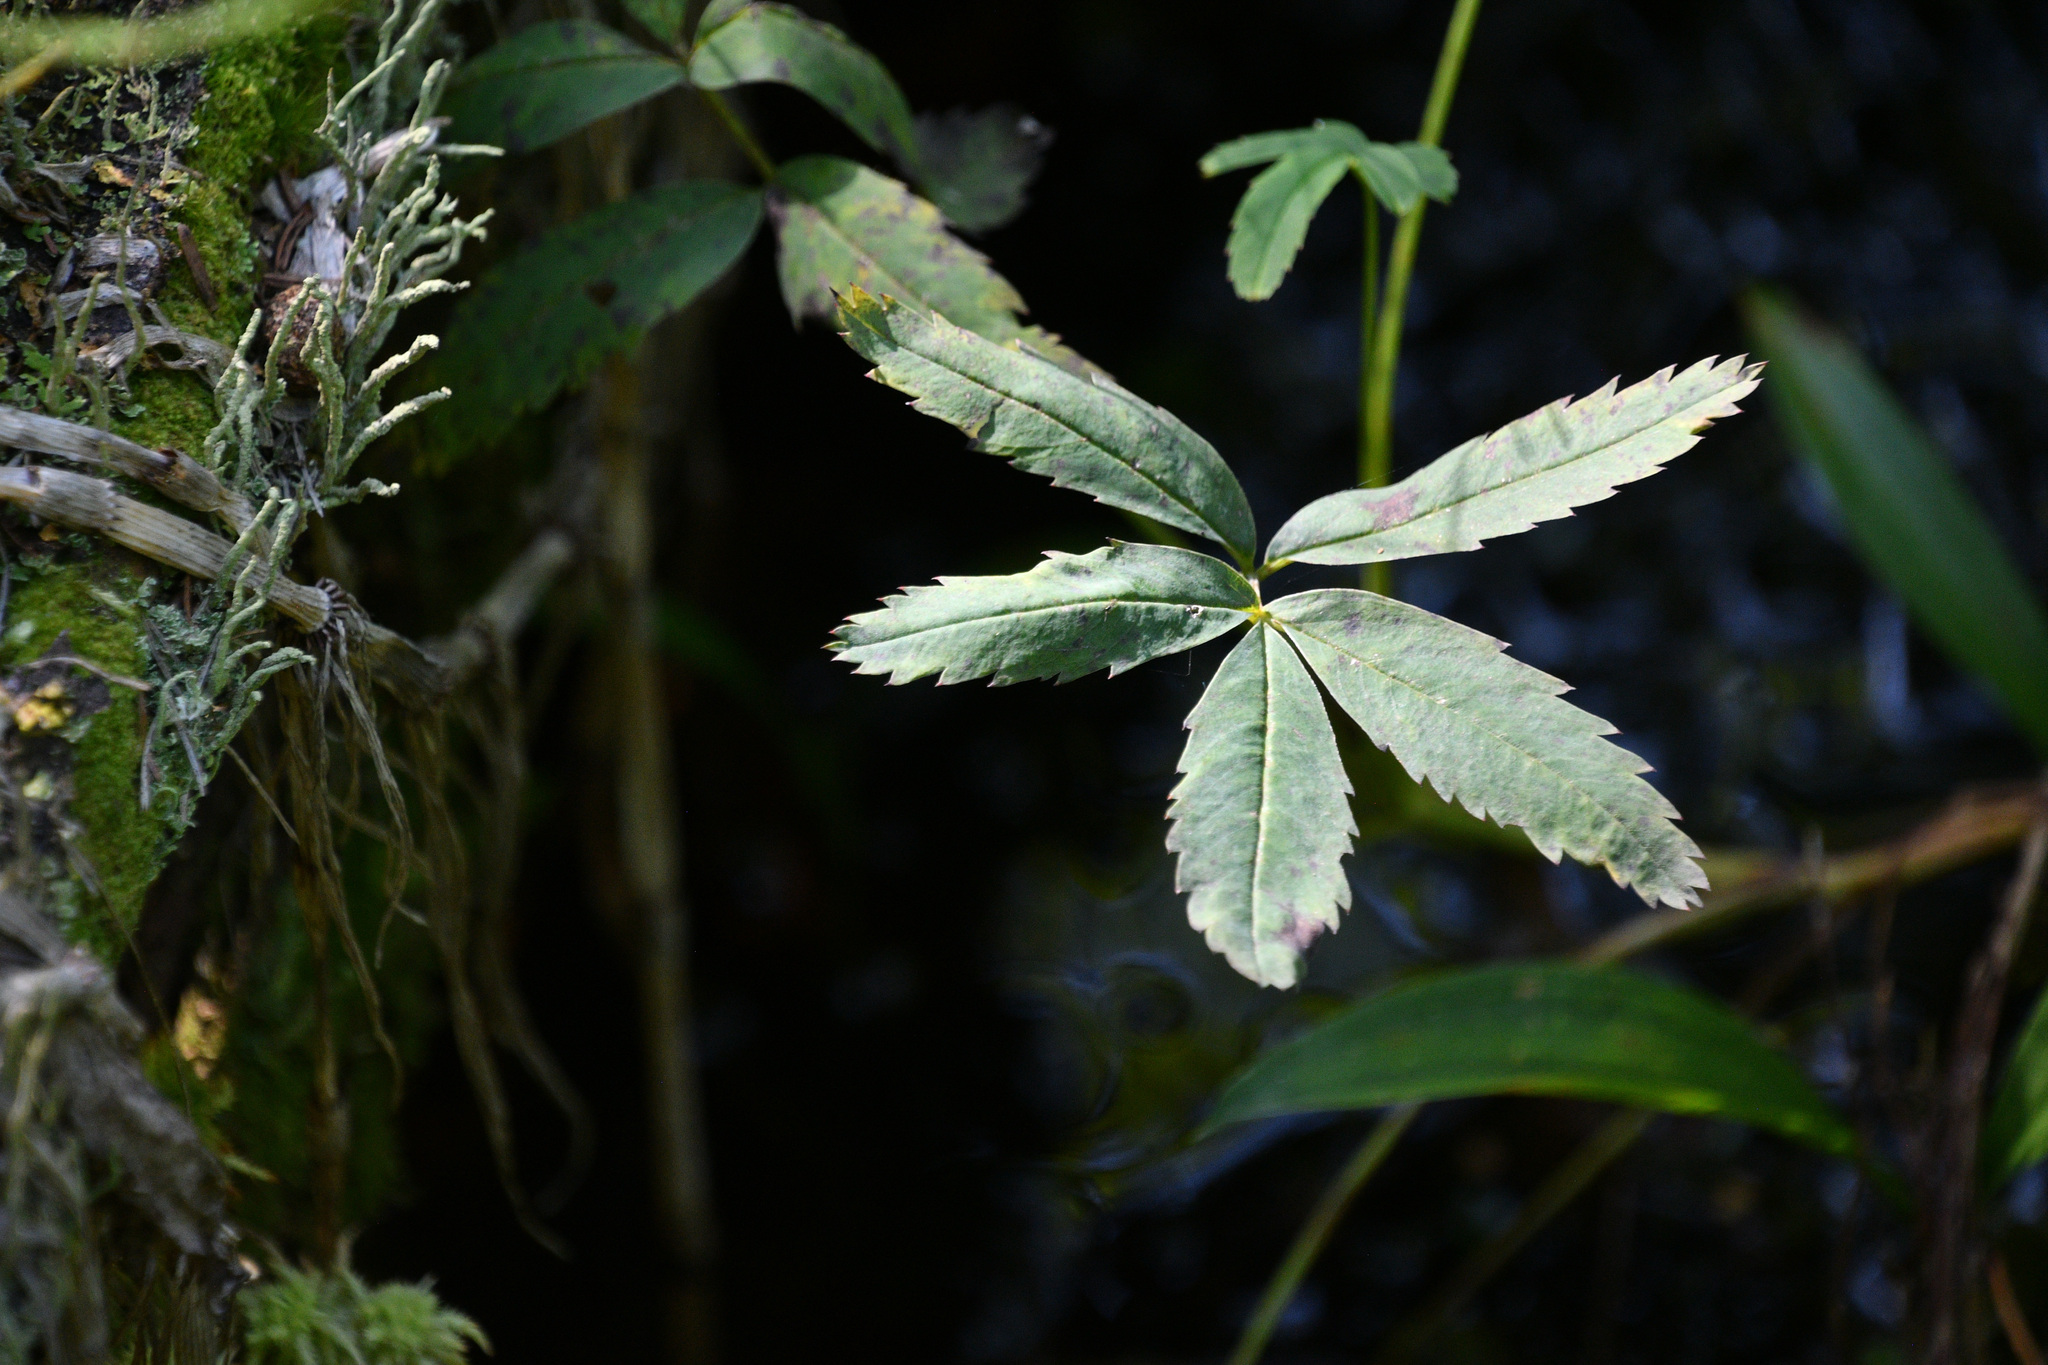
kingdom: Plantae
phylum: Tracheophyta
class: Magnoliopsida
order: Rosales
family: Rosaceae
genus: Comarum
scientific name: Comarum palustre
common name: Marsh cinquefoil
